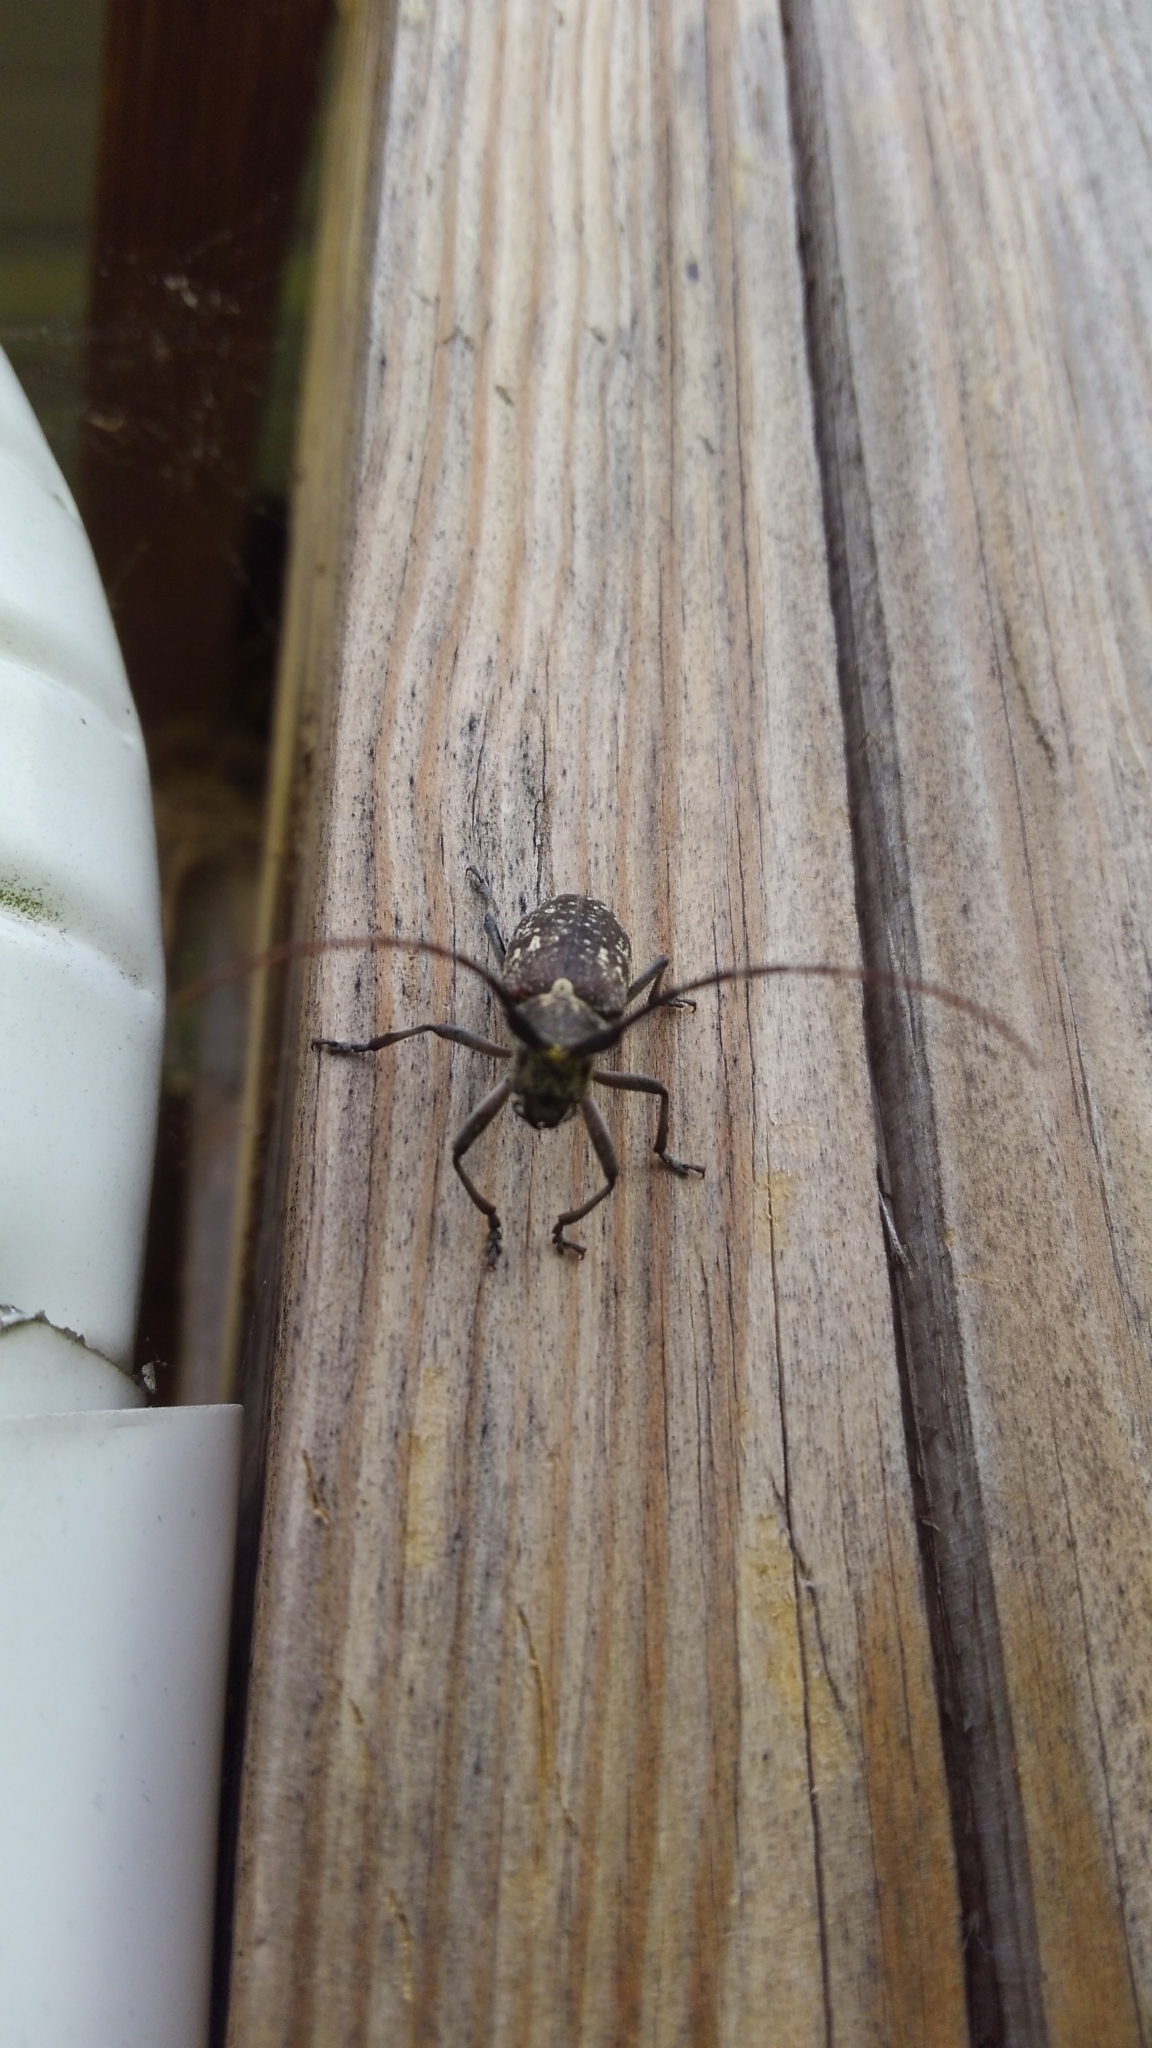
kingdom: Animalia
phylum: Arthropoda
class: Insecta
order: Coleoptera
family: Cerambycidae
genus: Monochamus
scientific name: Monochamus scutellatus
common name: White-spotted sawyer beetle
